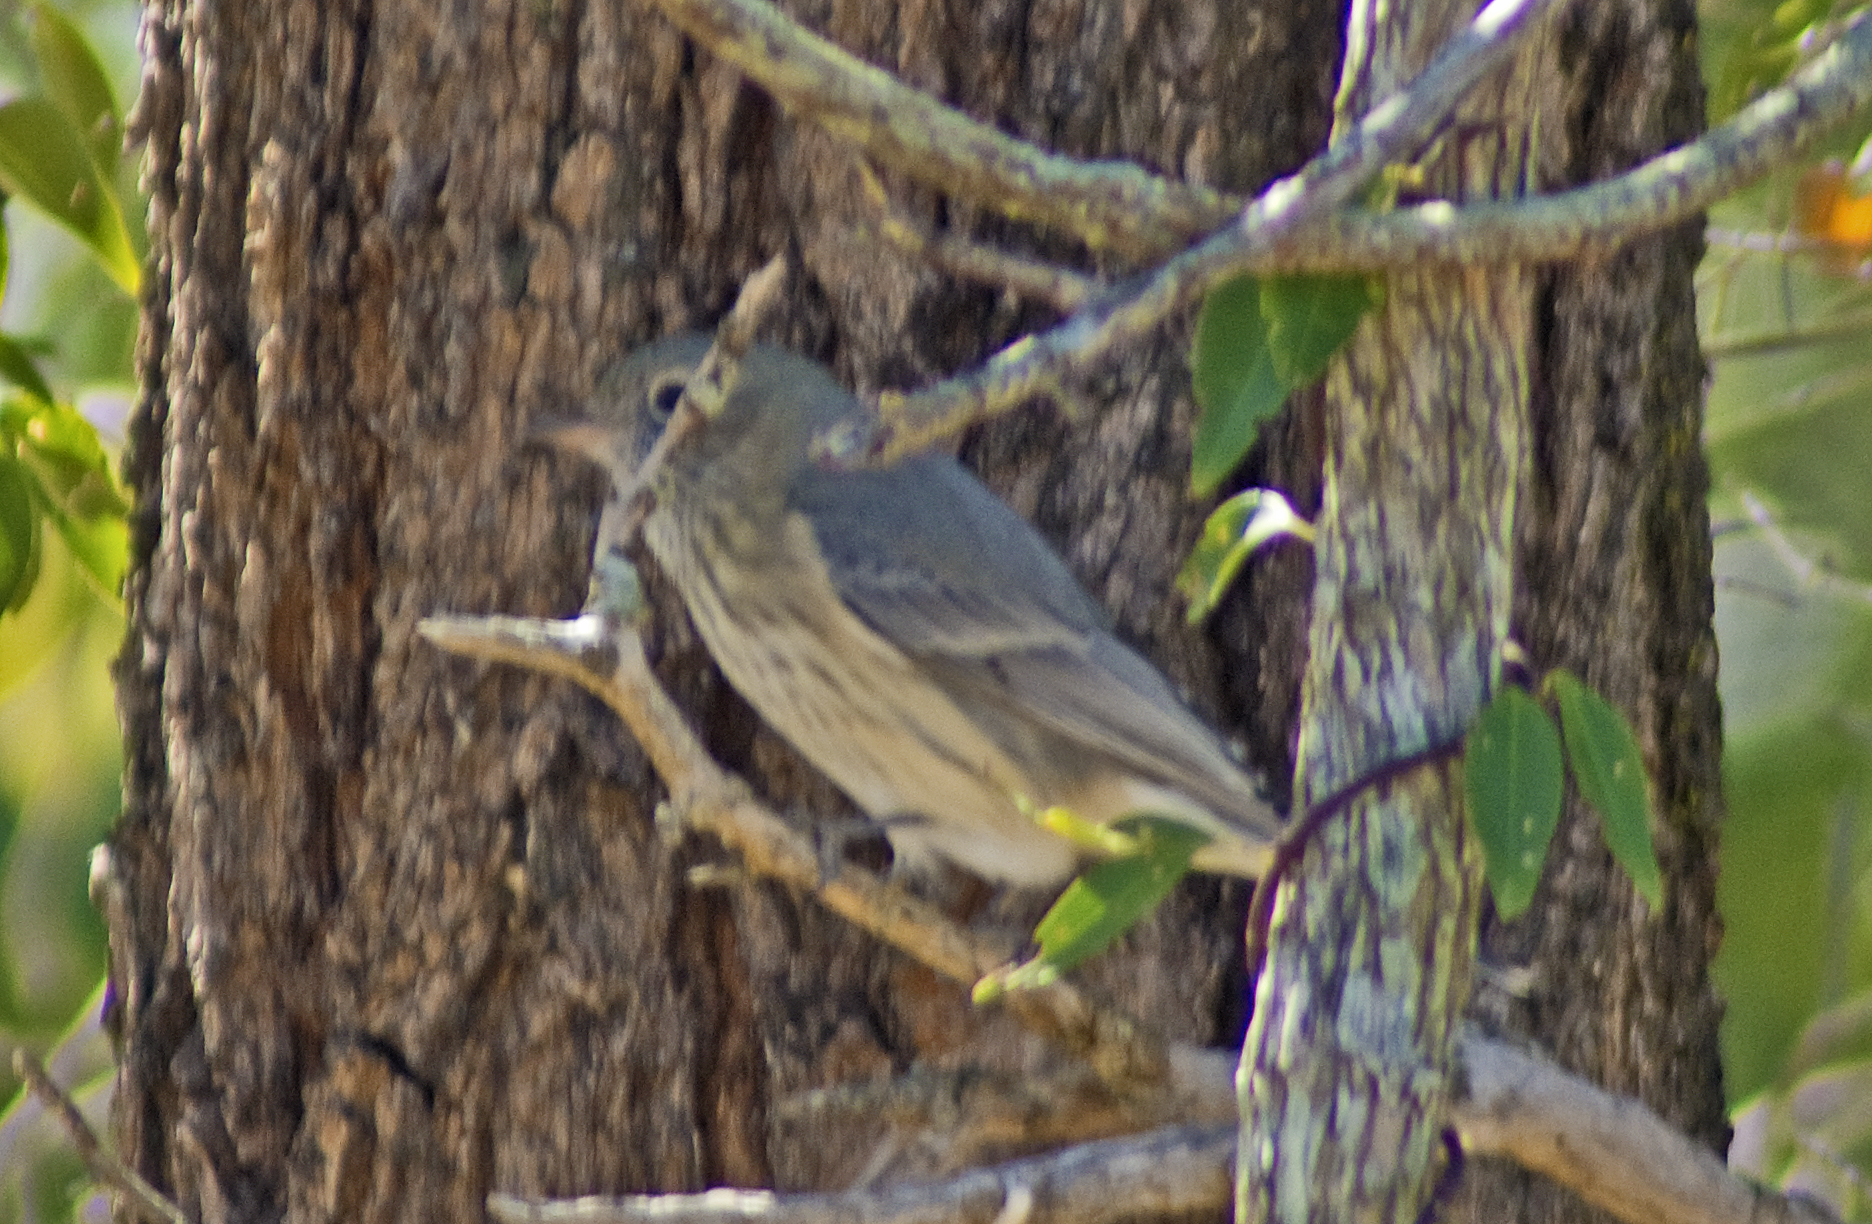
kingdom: Animalia
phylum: Chordata
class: Aves
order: Passeriformes
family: Pachycephalidae
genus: Pachycephala
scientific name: Pachycephala rufiventris
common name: Rufous whistler
